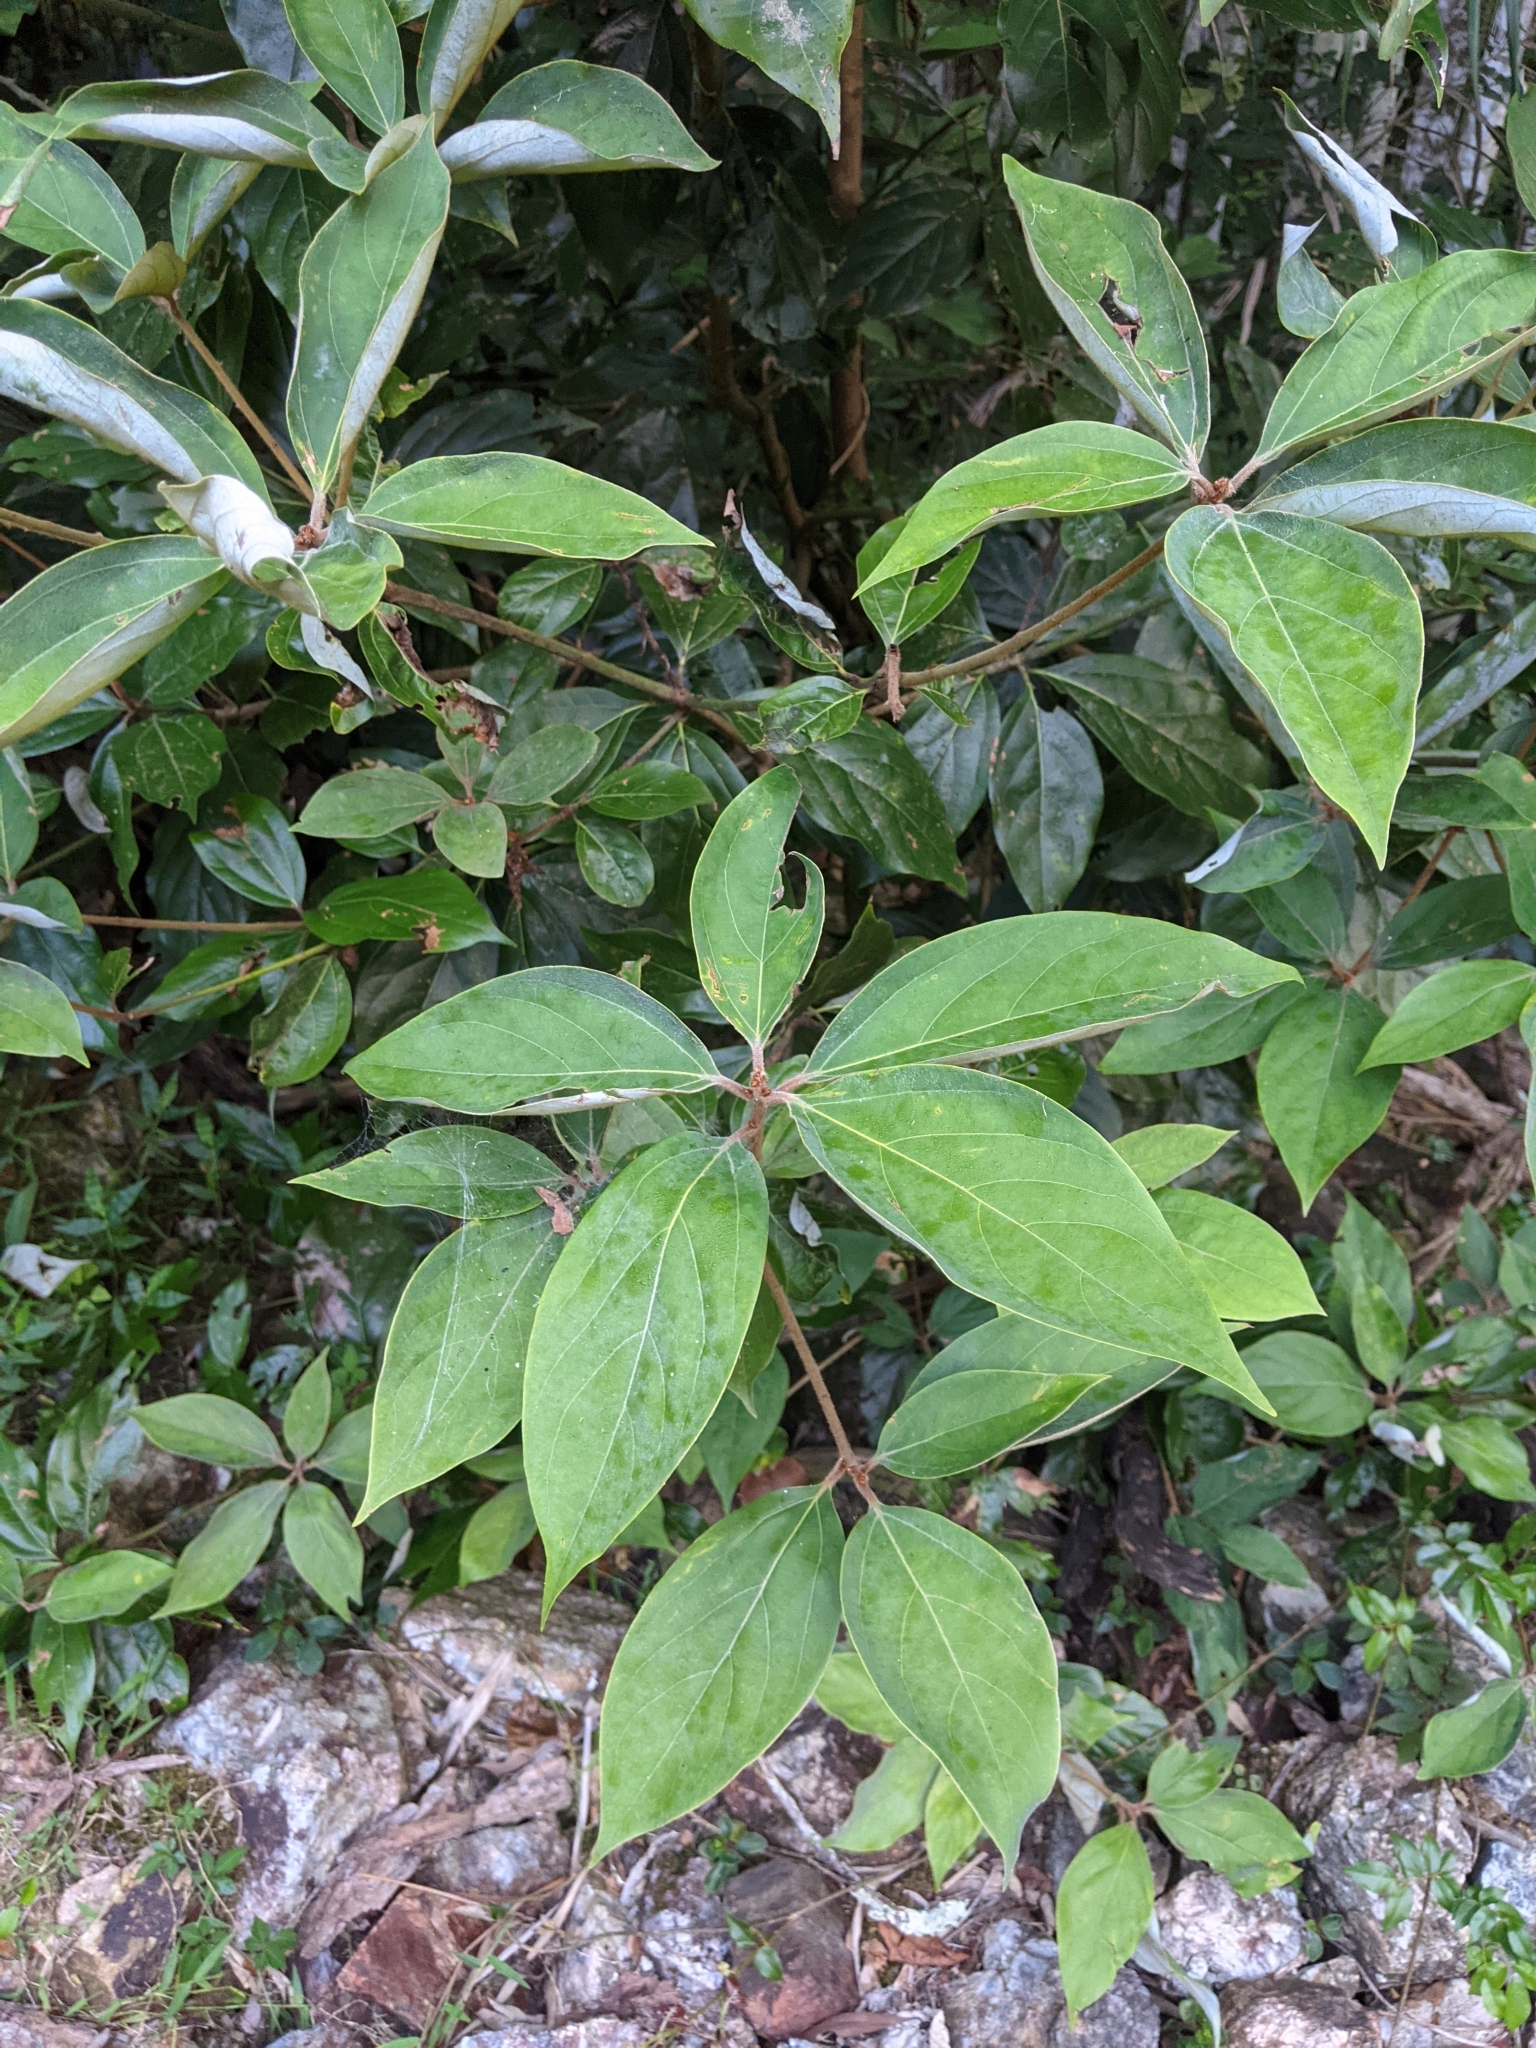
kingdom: Plantae
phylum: Tracheophyta
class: Magnoliopsida
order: Laurales
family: Lauraceae
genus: Neolitsea
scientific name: Neolitsea dealbata
